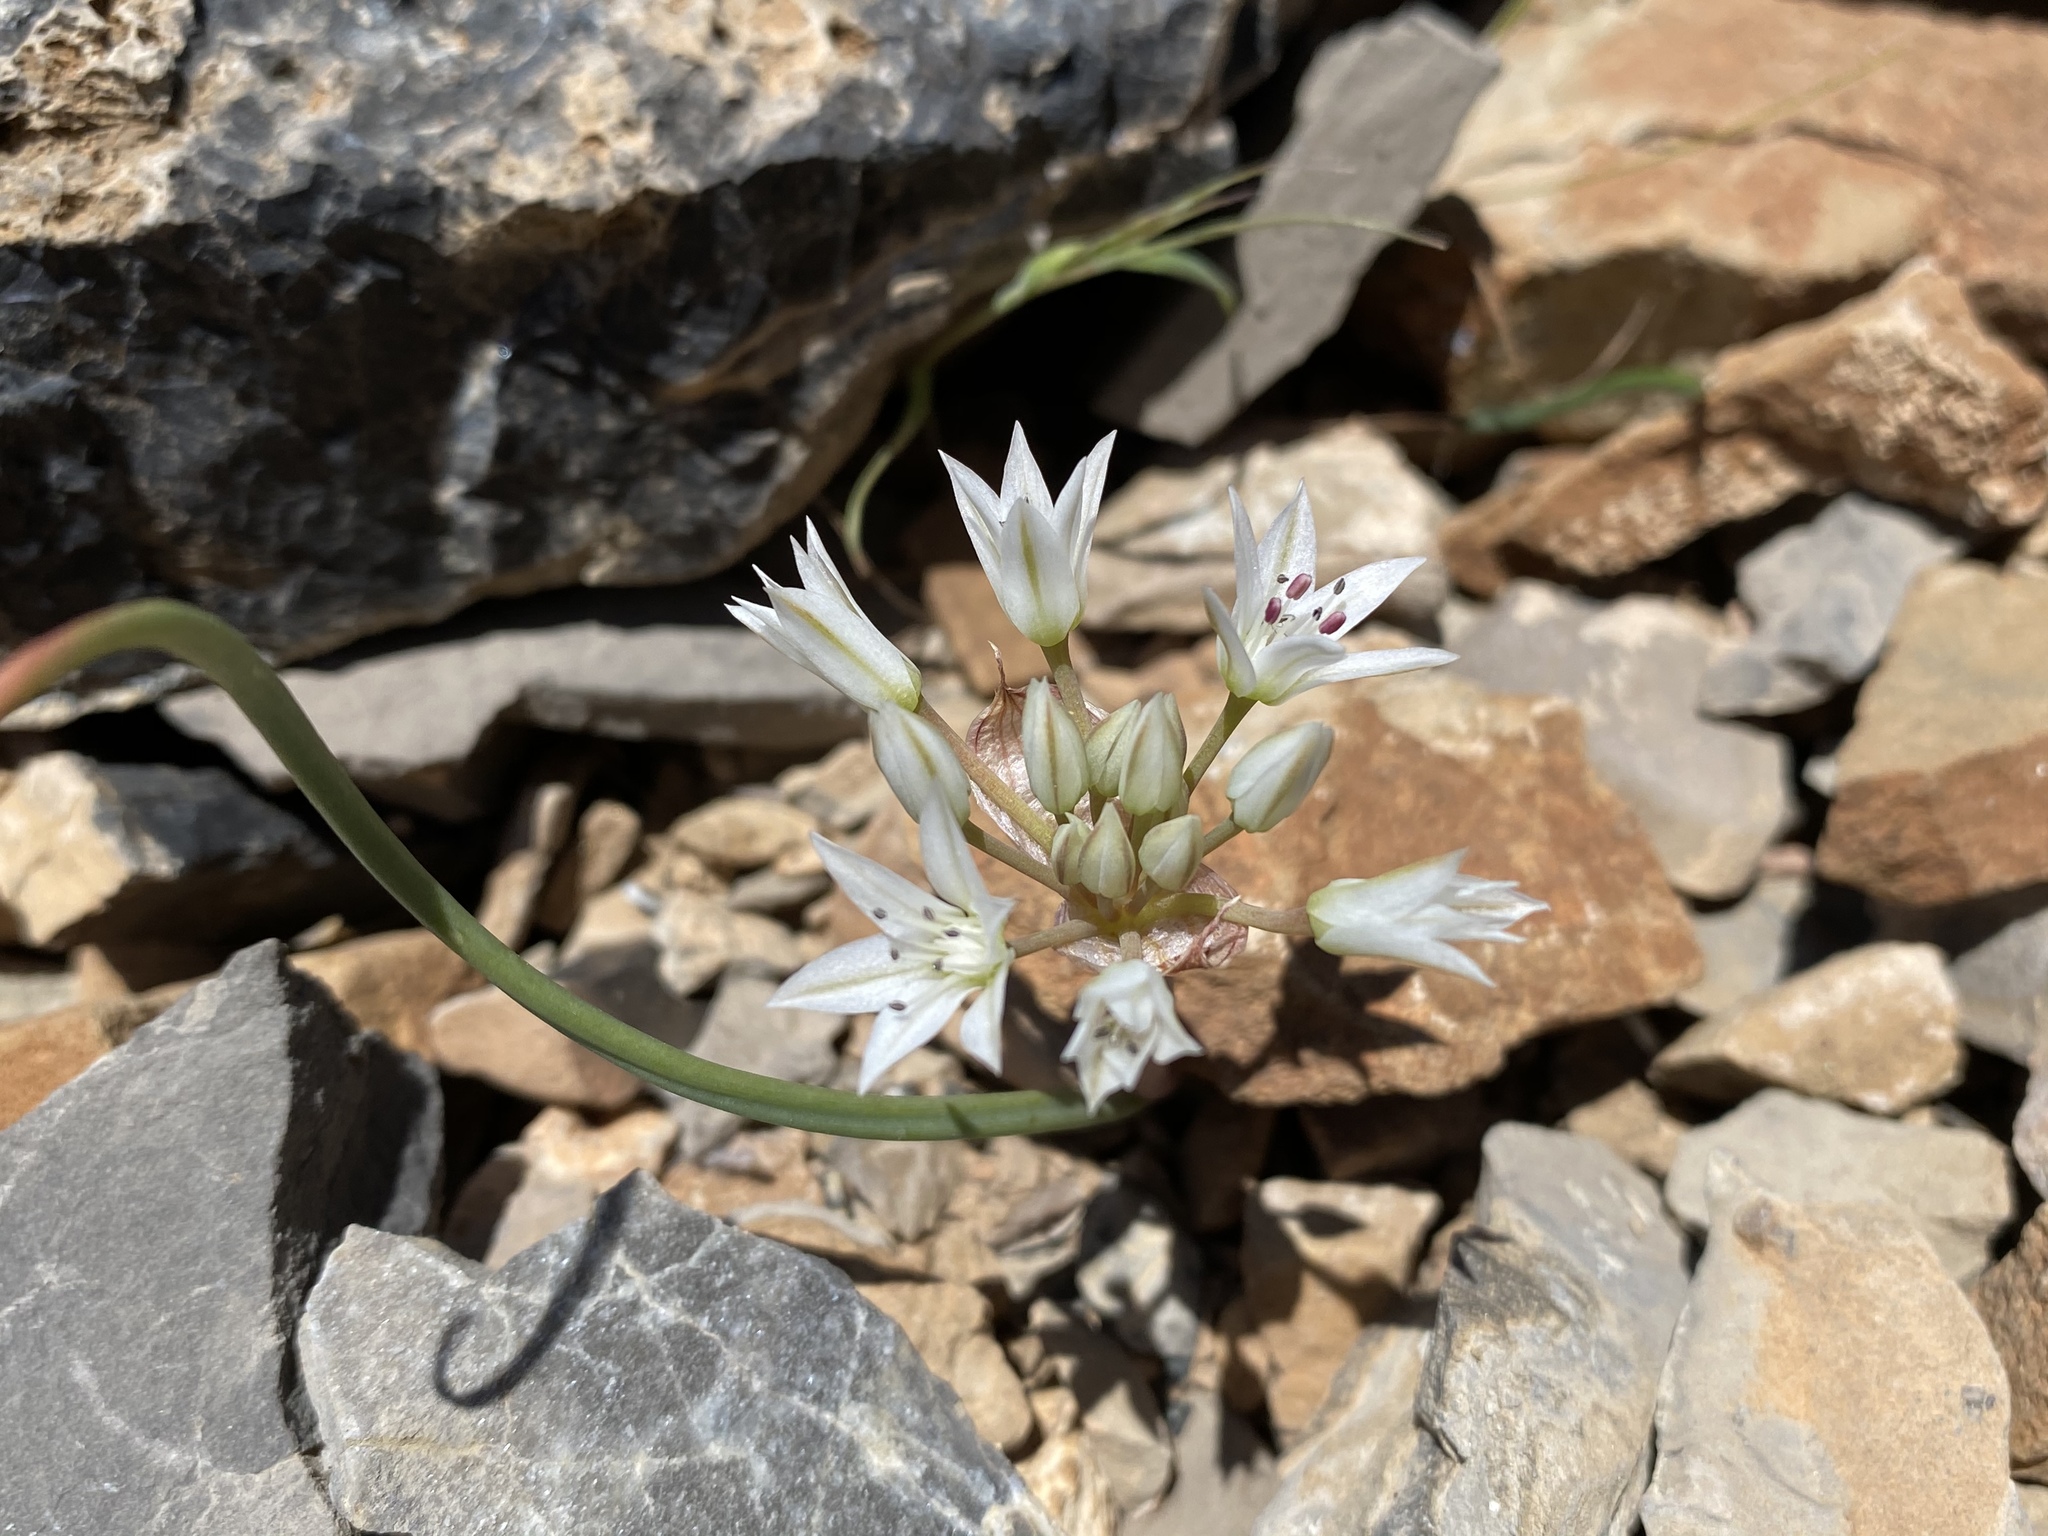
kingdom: Plantae
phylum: Tracheophyta
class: Liliopsida
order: Asparagales
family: Amaryllidaceae
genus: Allium
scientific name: Allium nevadense
